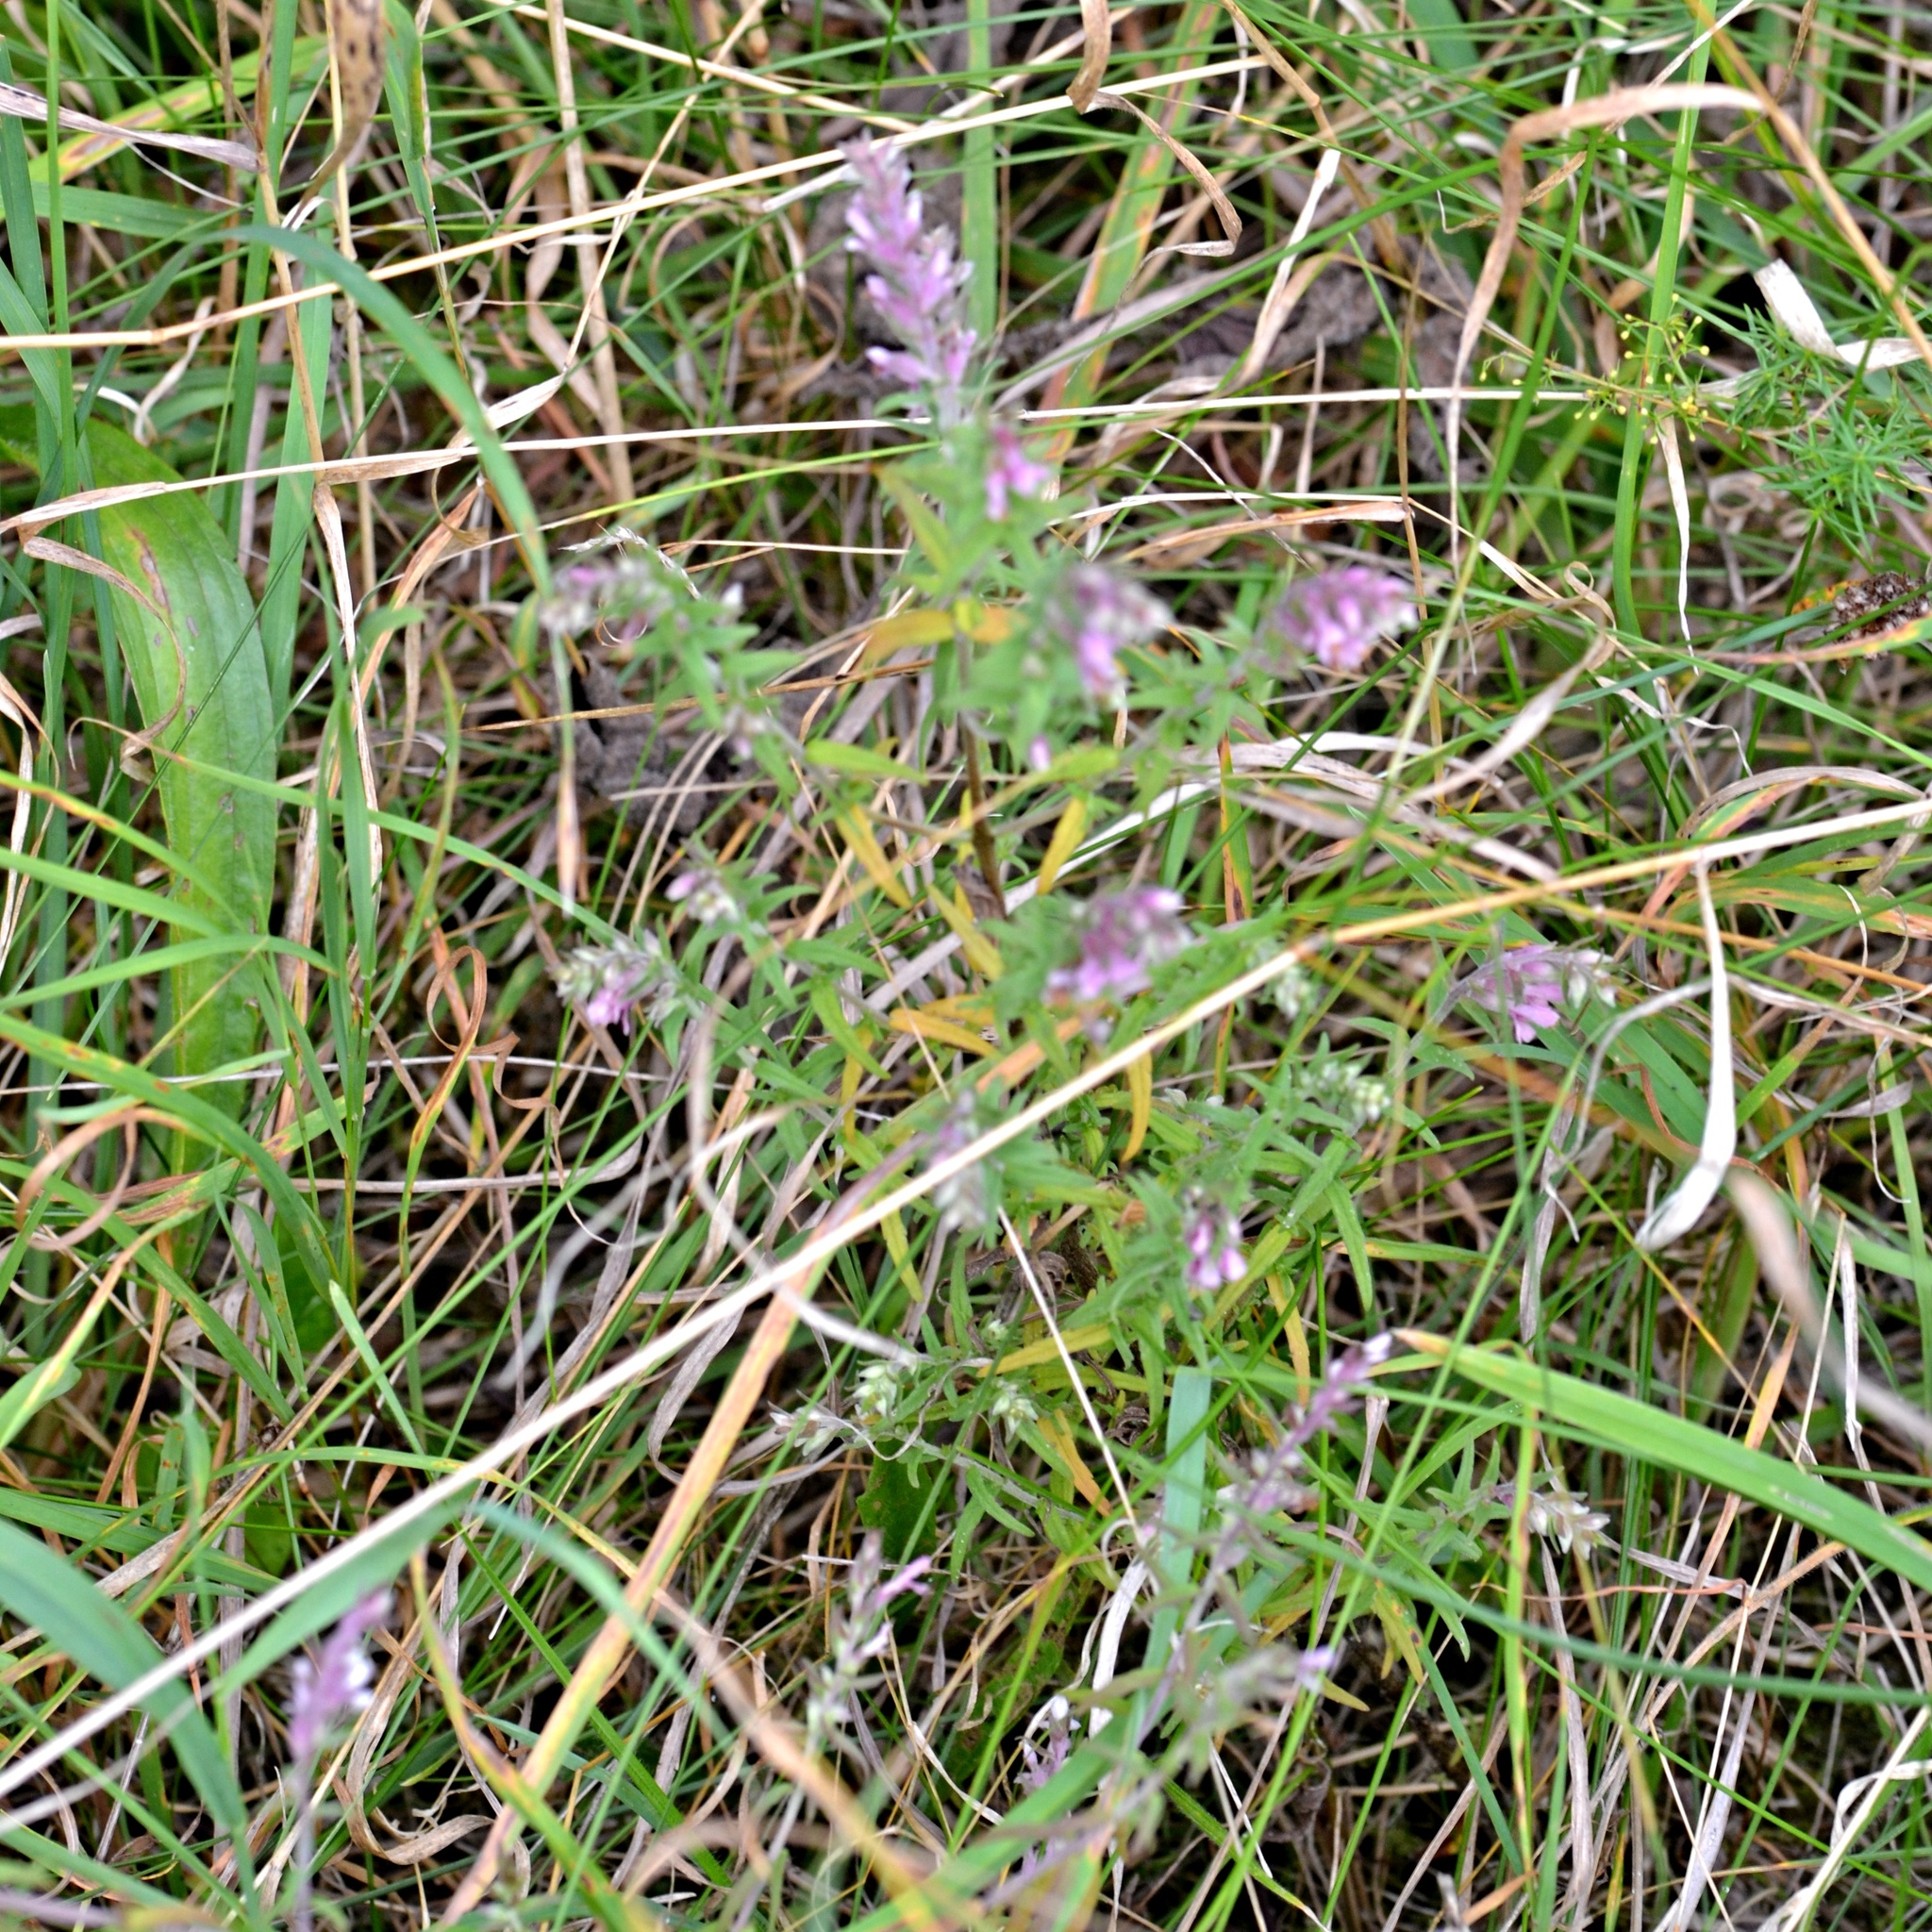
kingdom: Plantae
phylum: Tracheophyta
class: Magnoliopsida
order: Lamiales
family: Orobanchaceae
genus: Odontites
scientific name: Odontites vulgaris
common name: Broomrape
